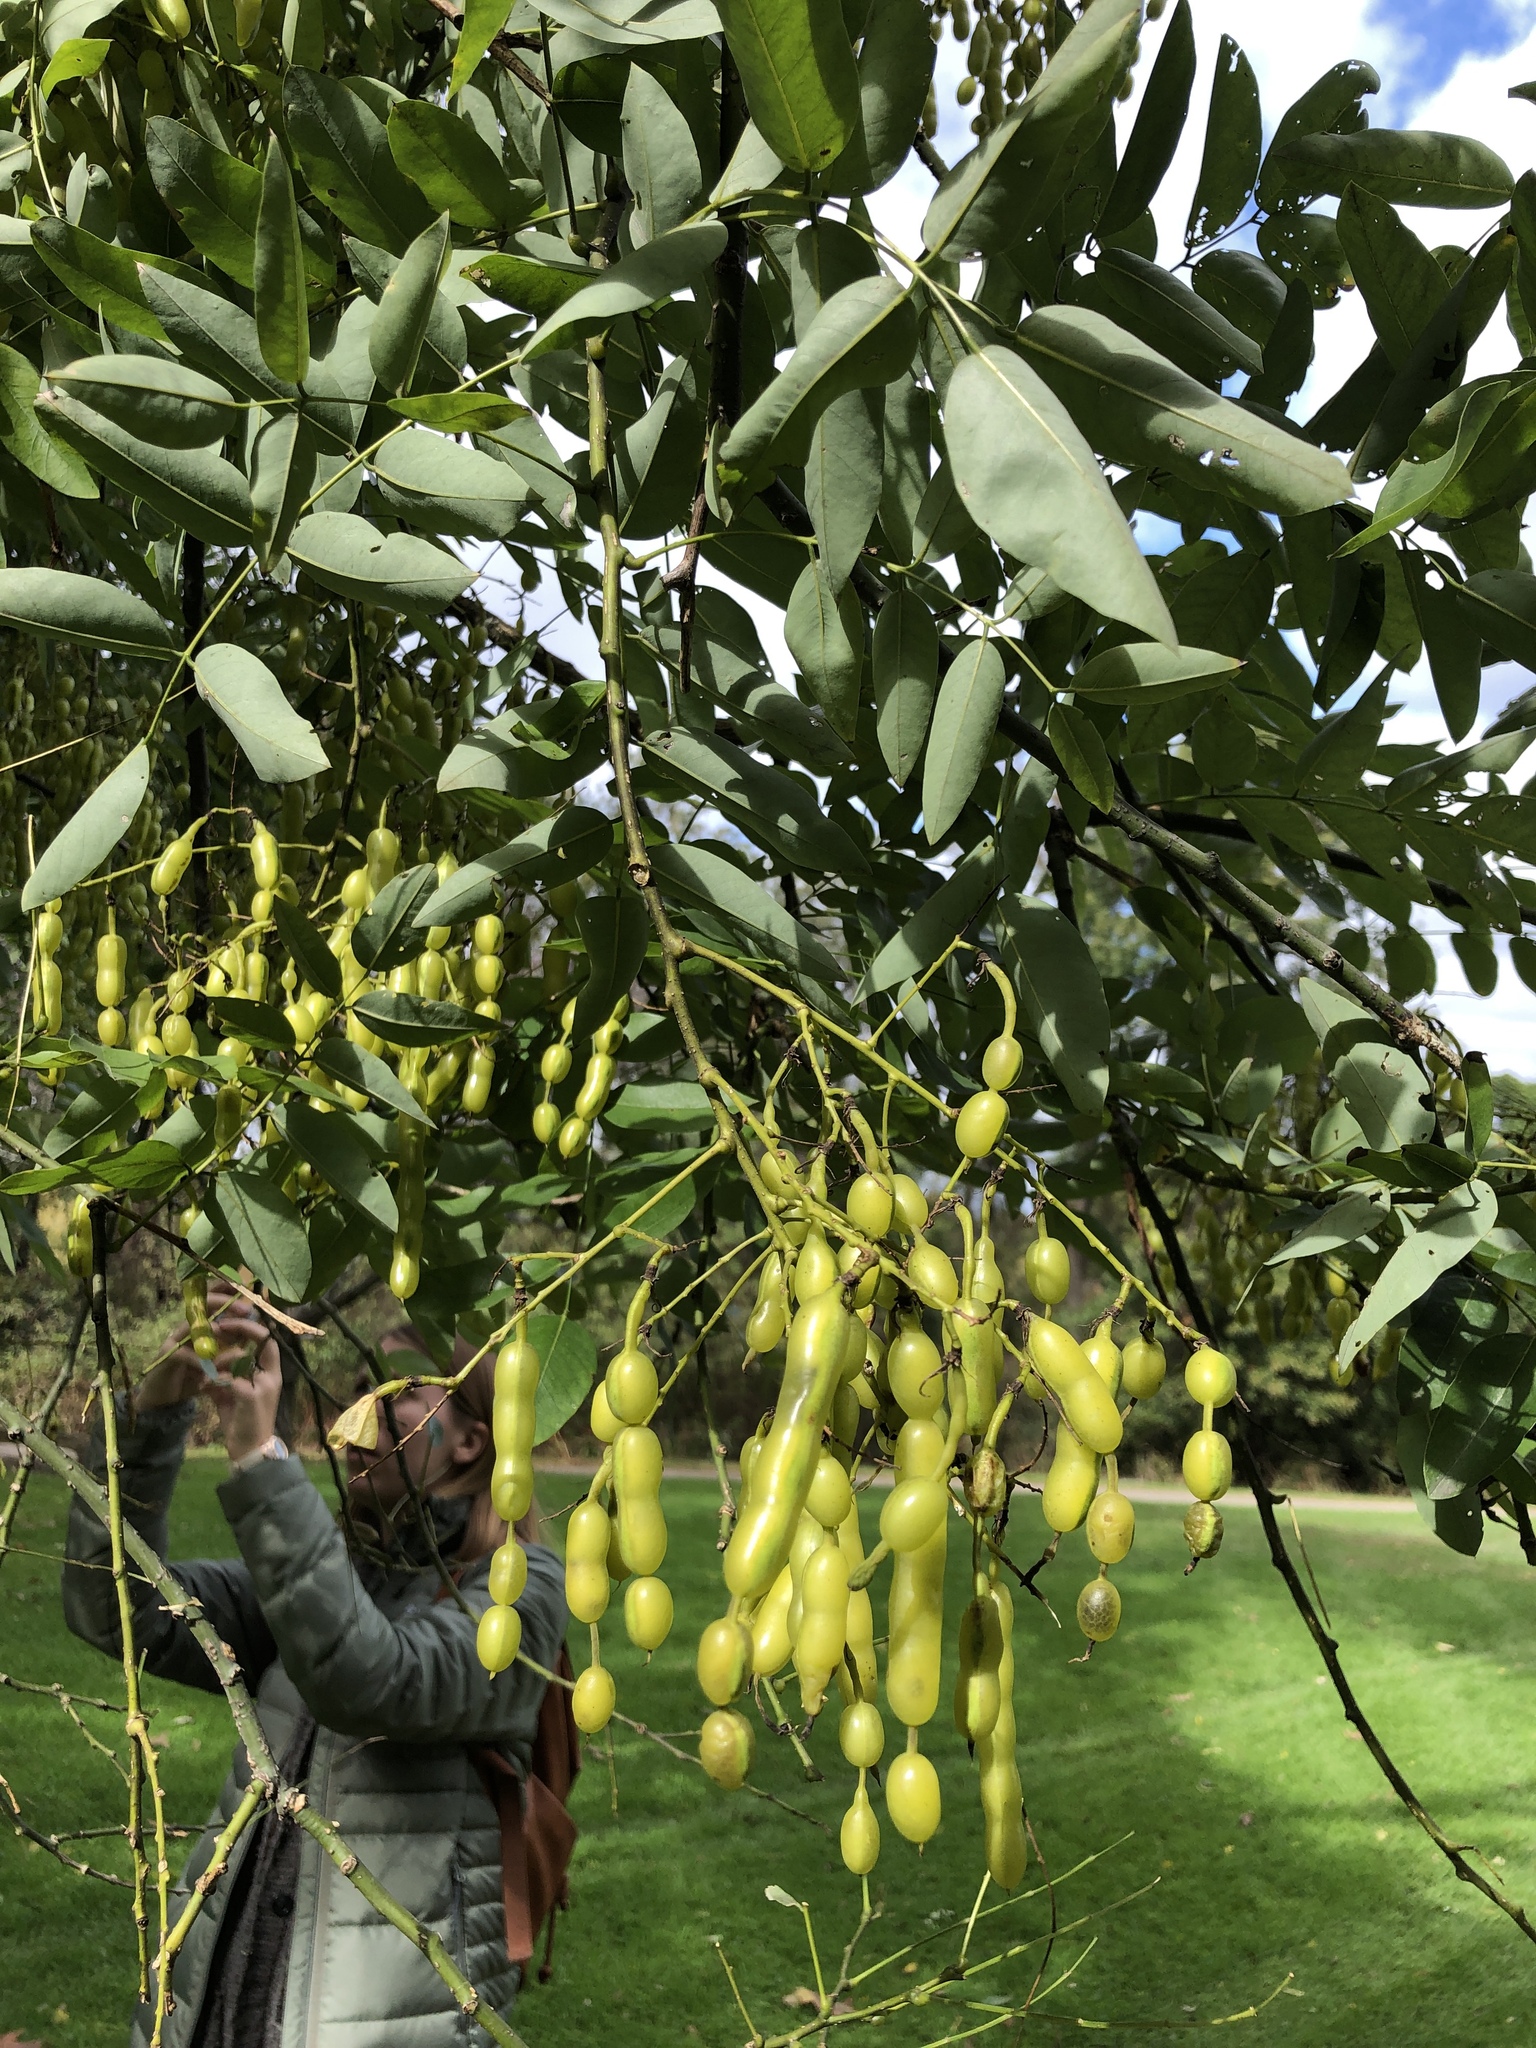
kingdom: Plantae
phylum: Tracheophyta
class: Magnoliopsida
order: Fabales
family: Fabaceae
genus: Styphnolobium
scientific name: Styphnolobium japonicum
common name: Chinese scholartree
